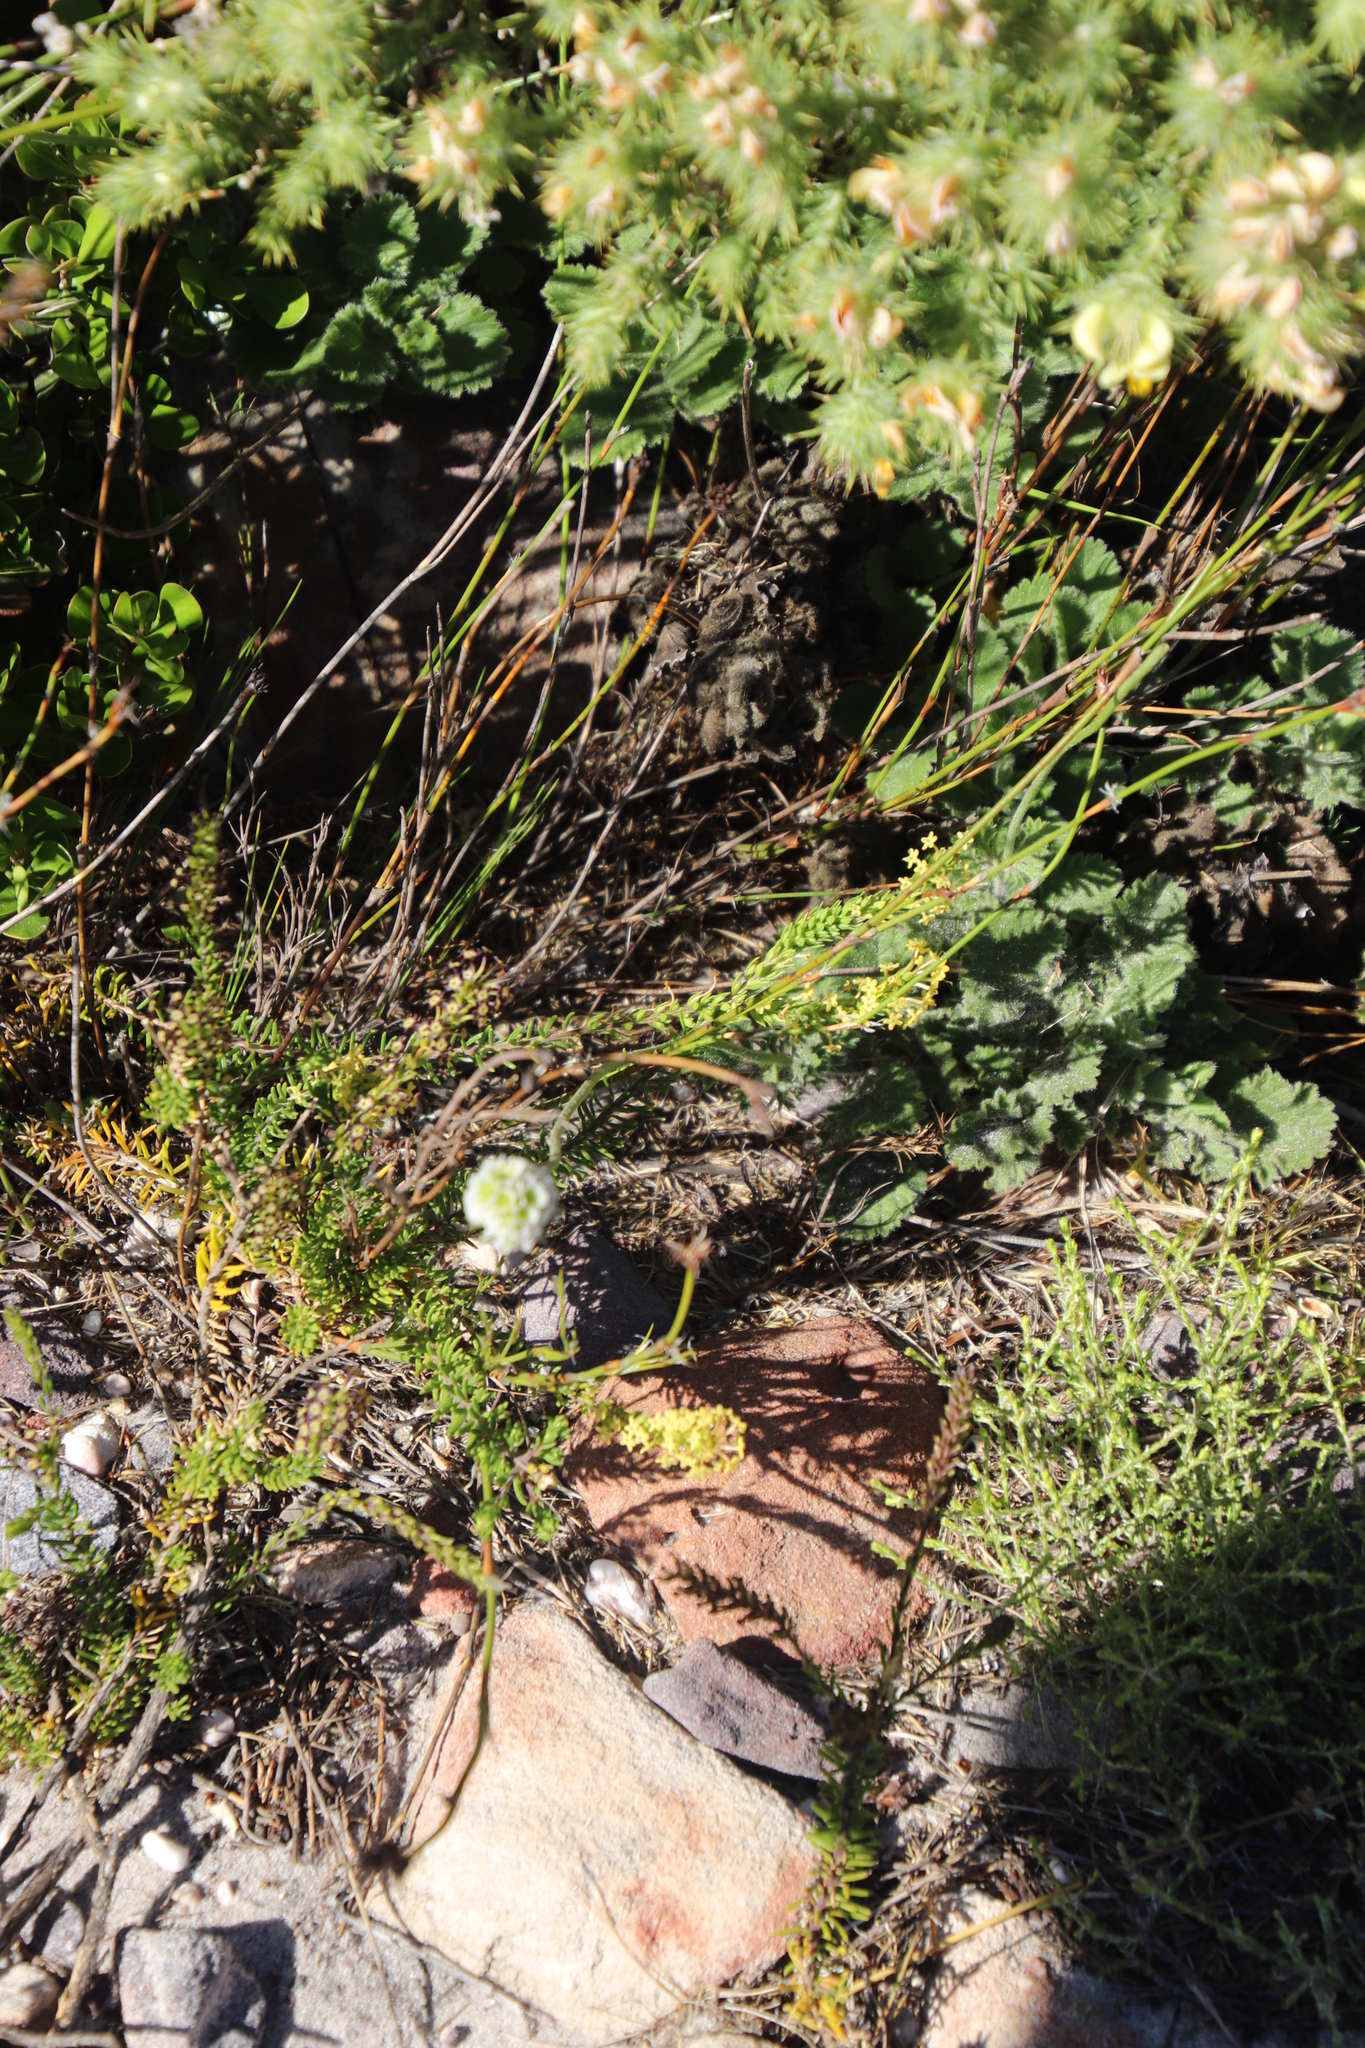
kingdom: Plantae
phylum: Tracheophyta
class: Magnoliopsida
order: Lamiales
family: Scrophulariaceae
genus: Microdon
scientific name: Microdon dubius
